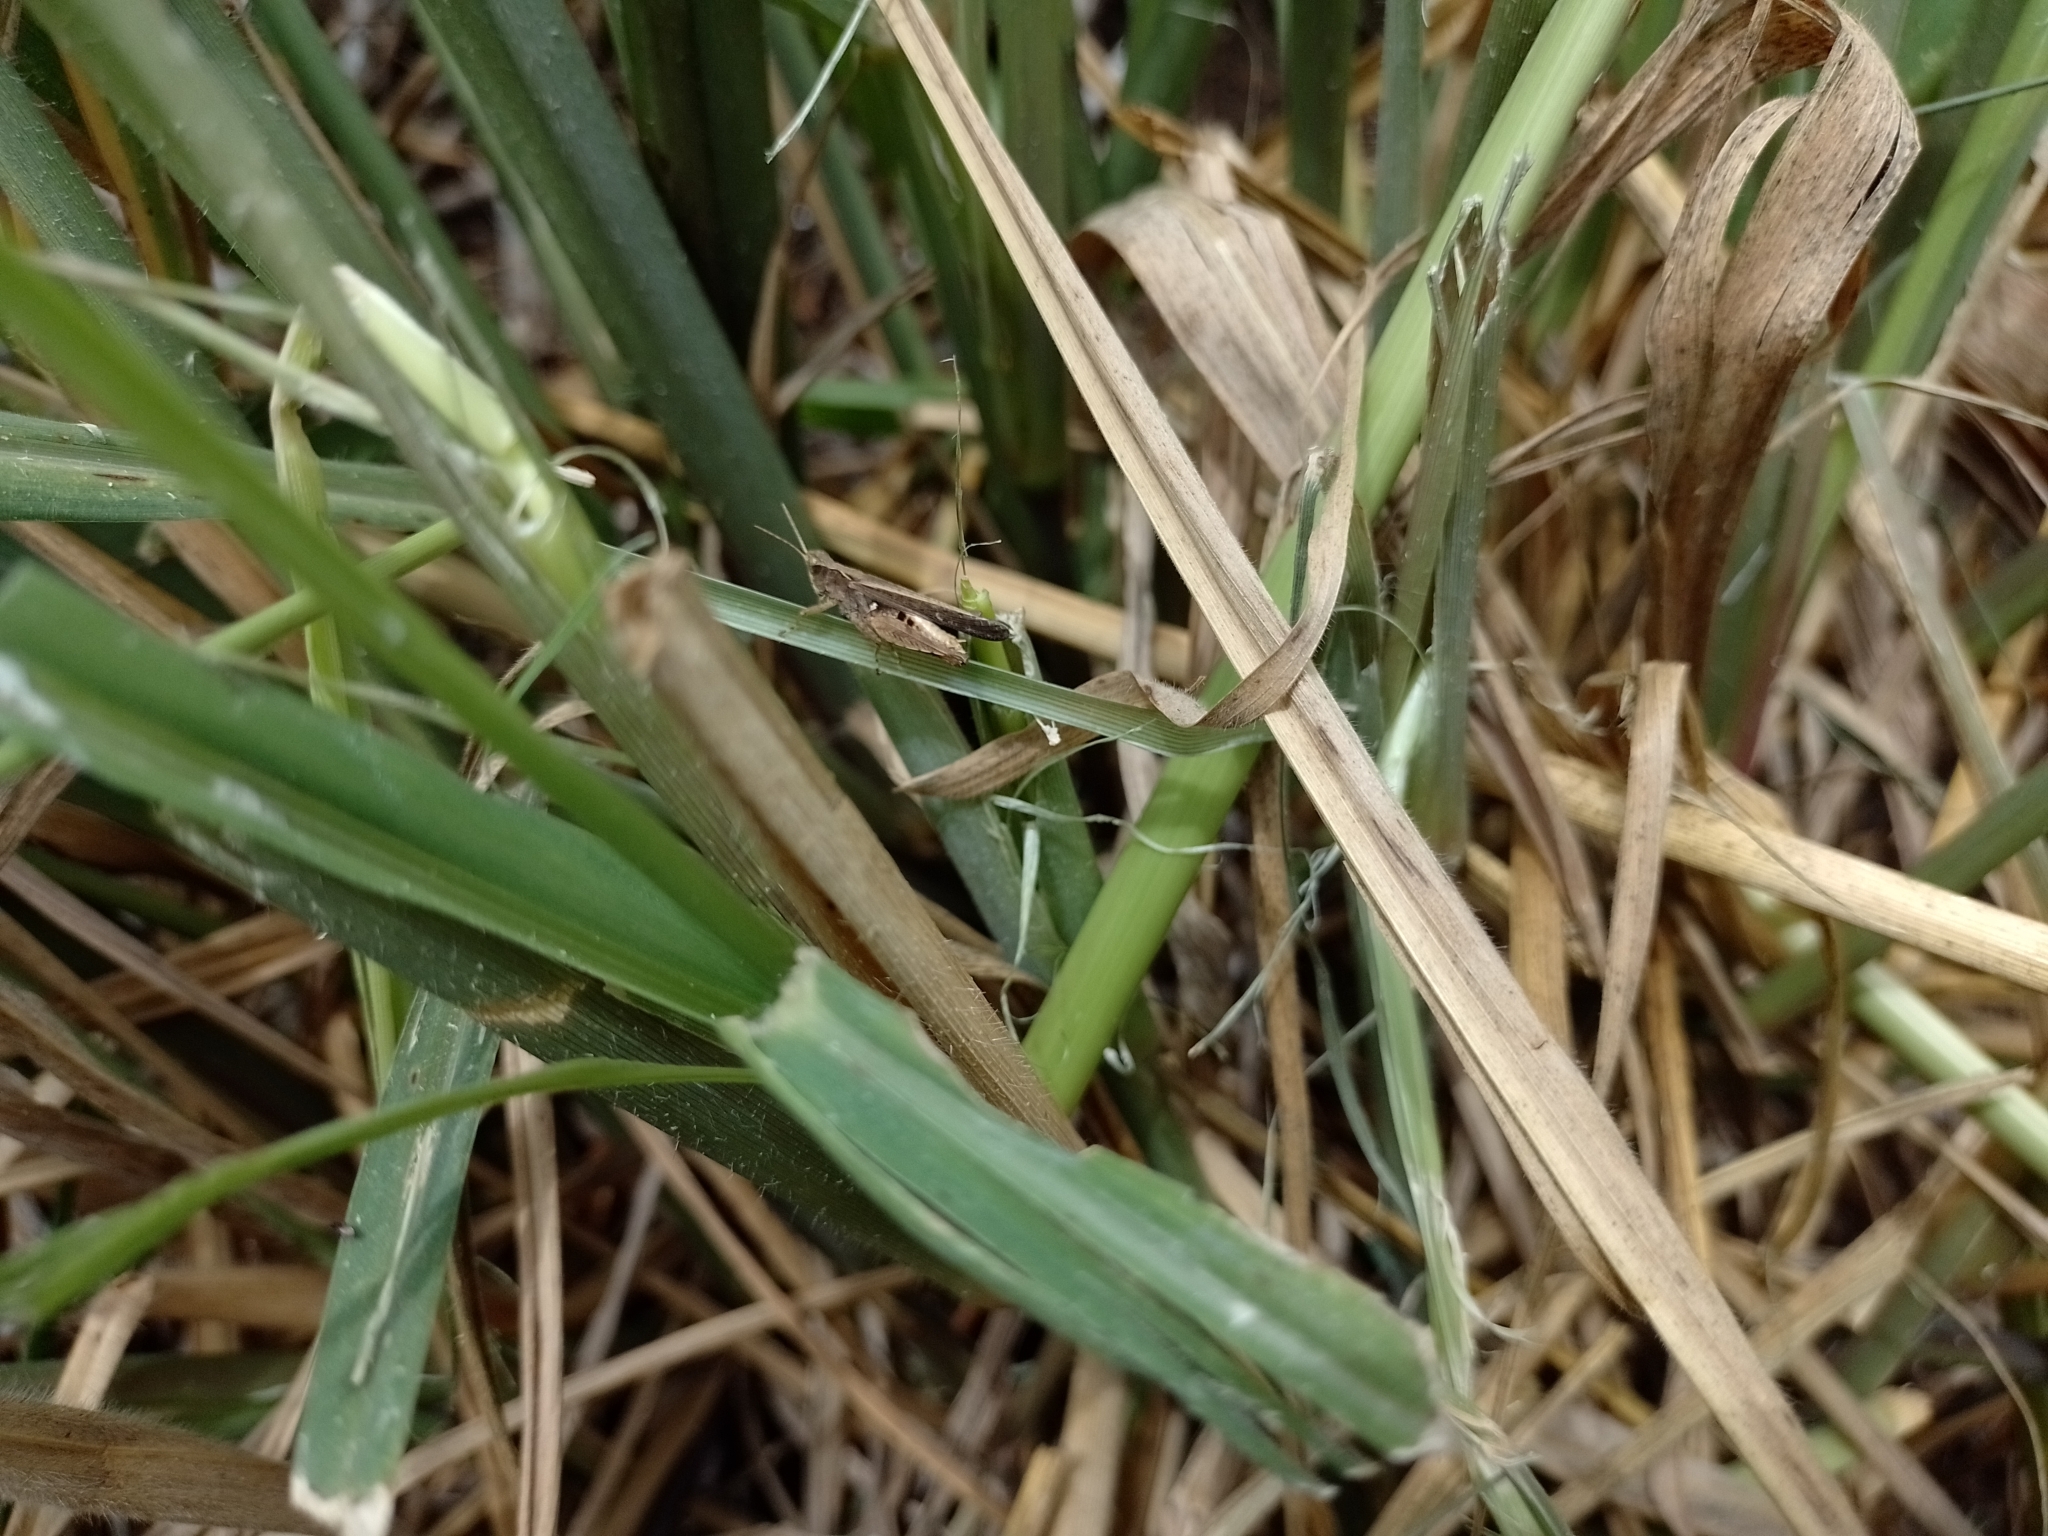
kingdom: Animalia
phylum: Arthropoda
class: Insecta
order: Orthoptera
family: Acrididae
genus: Orphulella
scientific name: Orphulella punctata
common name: Slant-faced grasshopper
